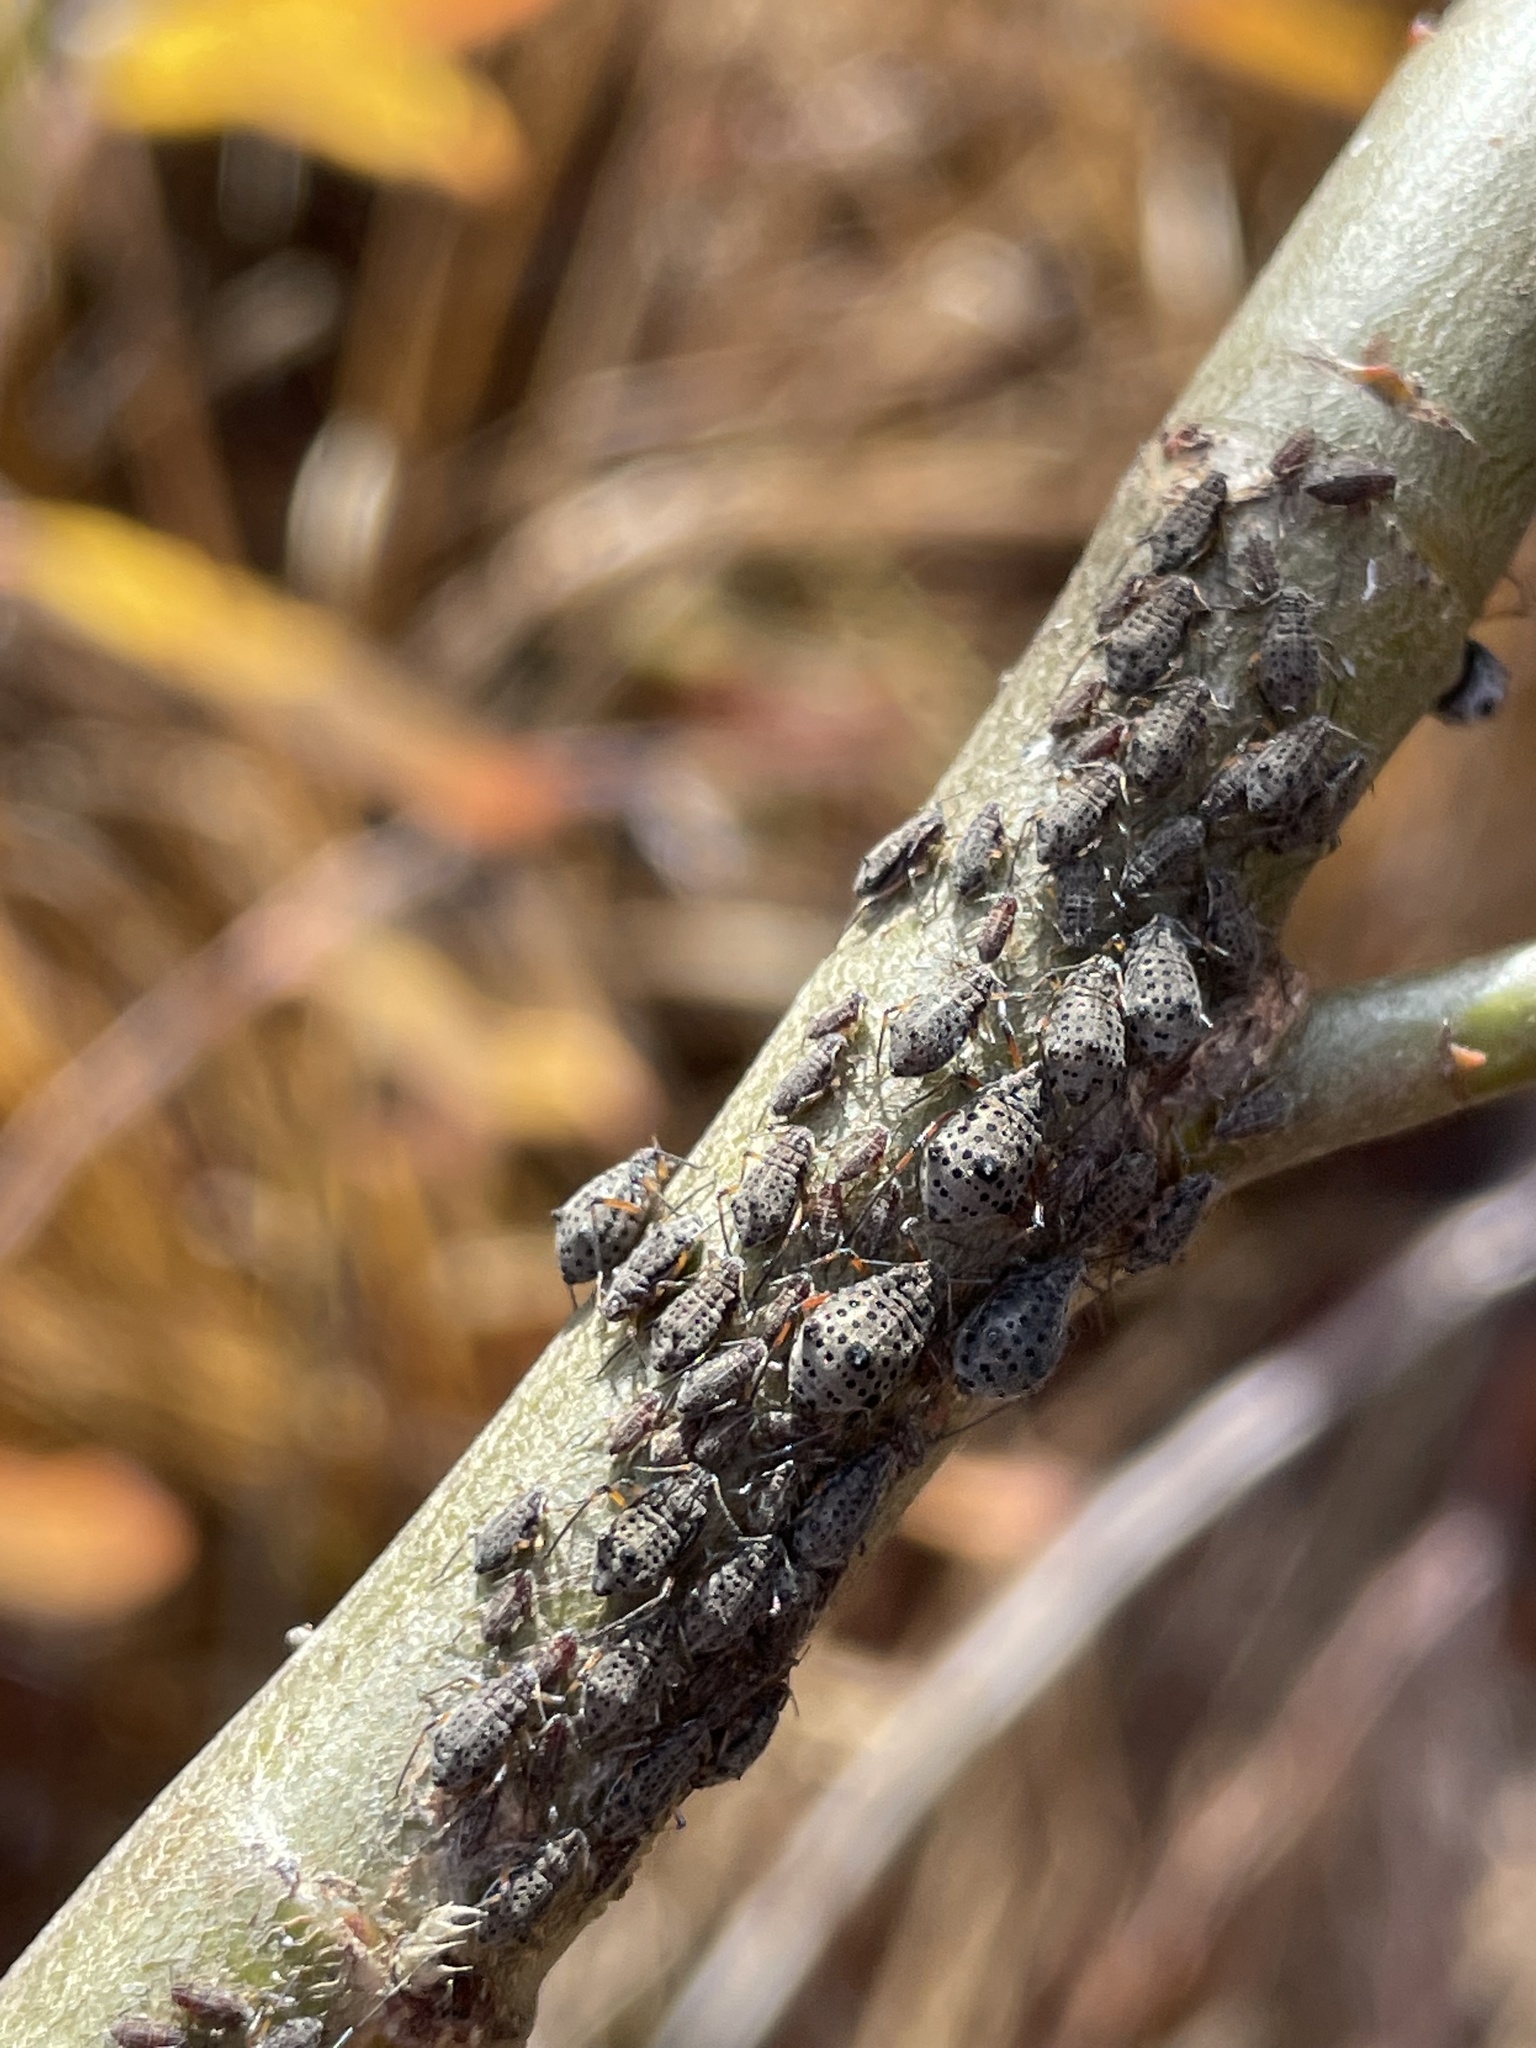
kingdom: Animalia
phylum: Arthropoda
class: Insecta
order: Hemiptera
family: Aphididae
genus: Tuberolachnus
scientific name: Tuberolachnus salignus
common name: Giant willow aphid
